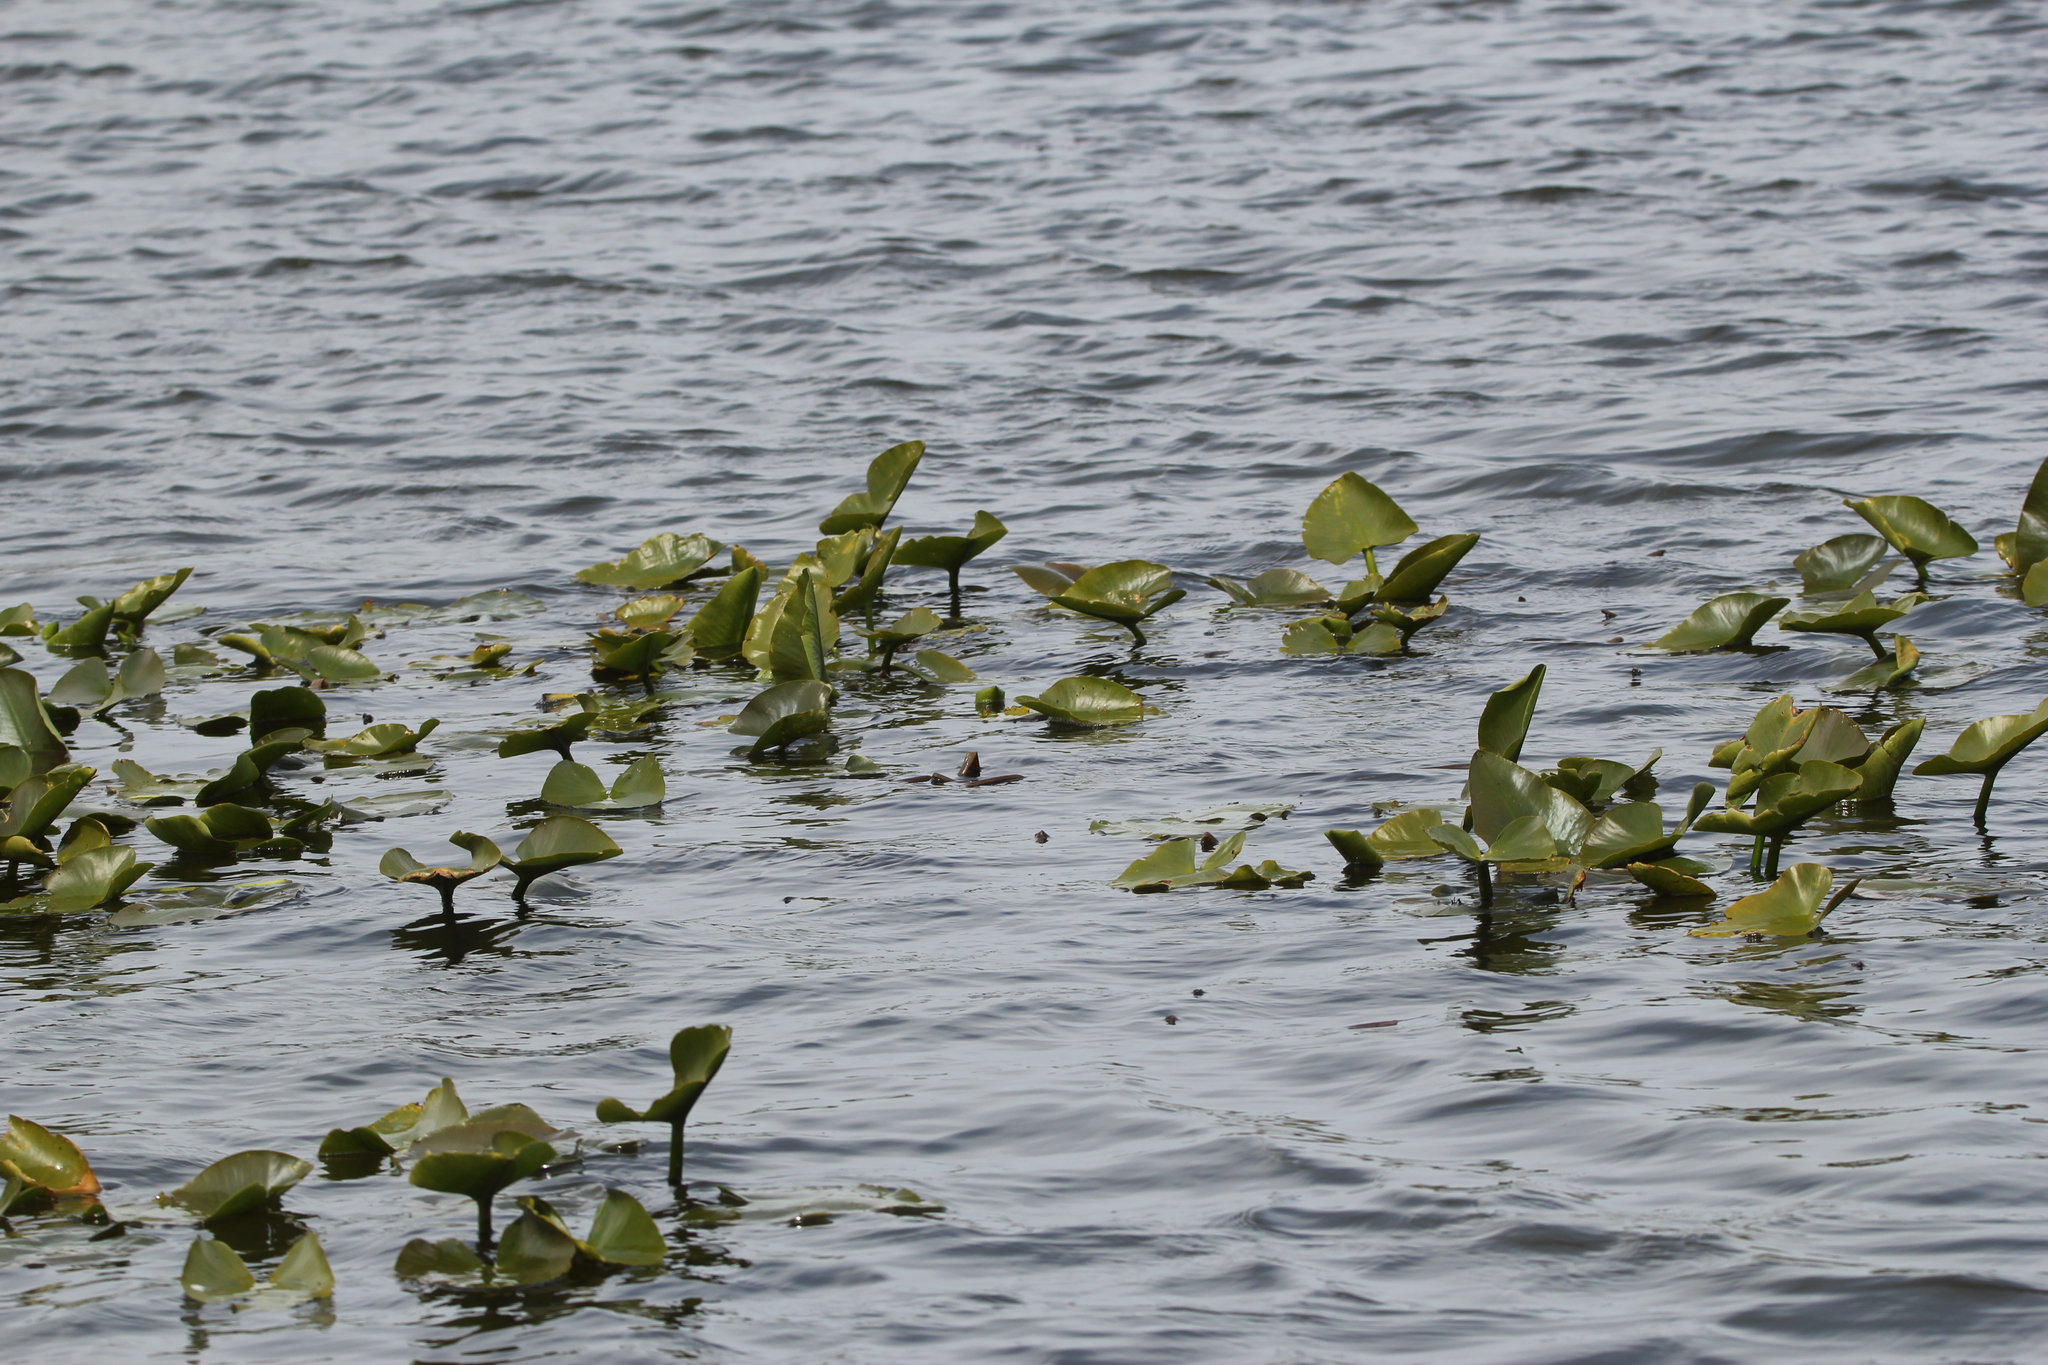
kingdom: Plantae
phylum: Tracheophyta
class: Magnoliopsida
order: Nymphaeales
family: Nymphaeaceae
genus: Nuphar
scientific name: Nuphar advena
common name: Spatter-dock
